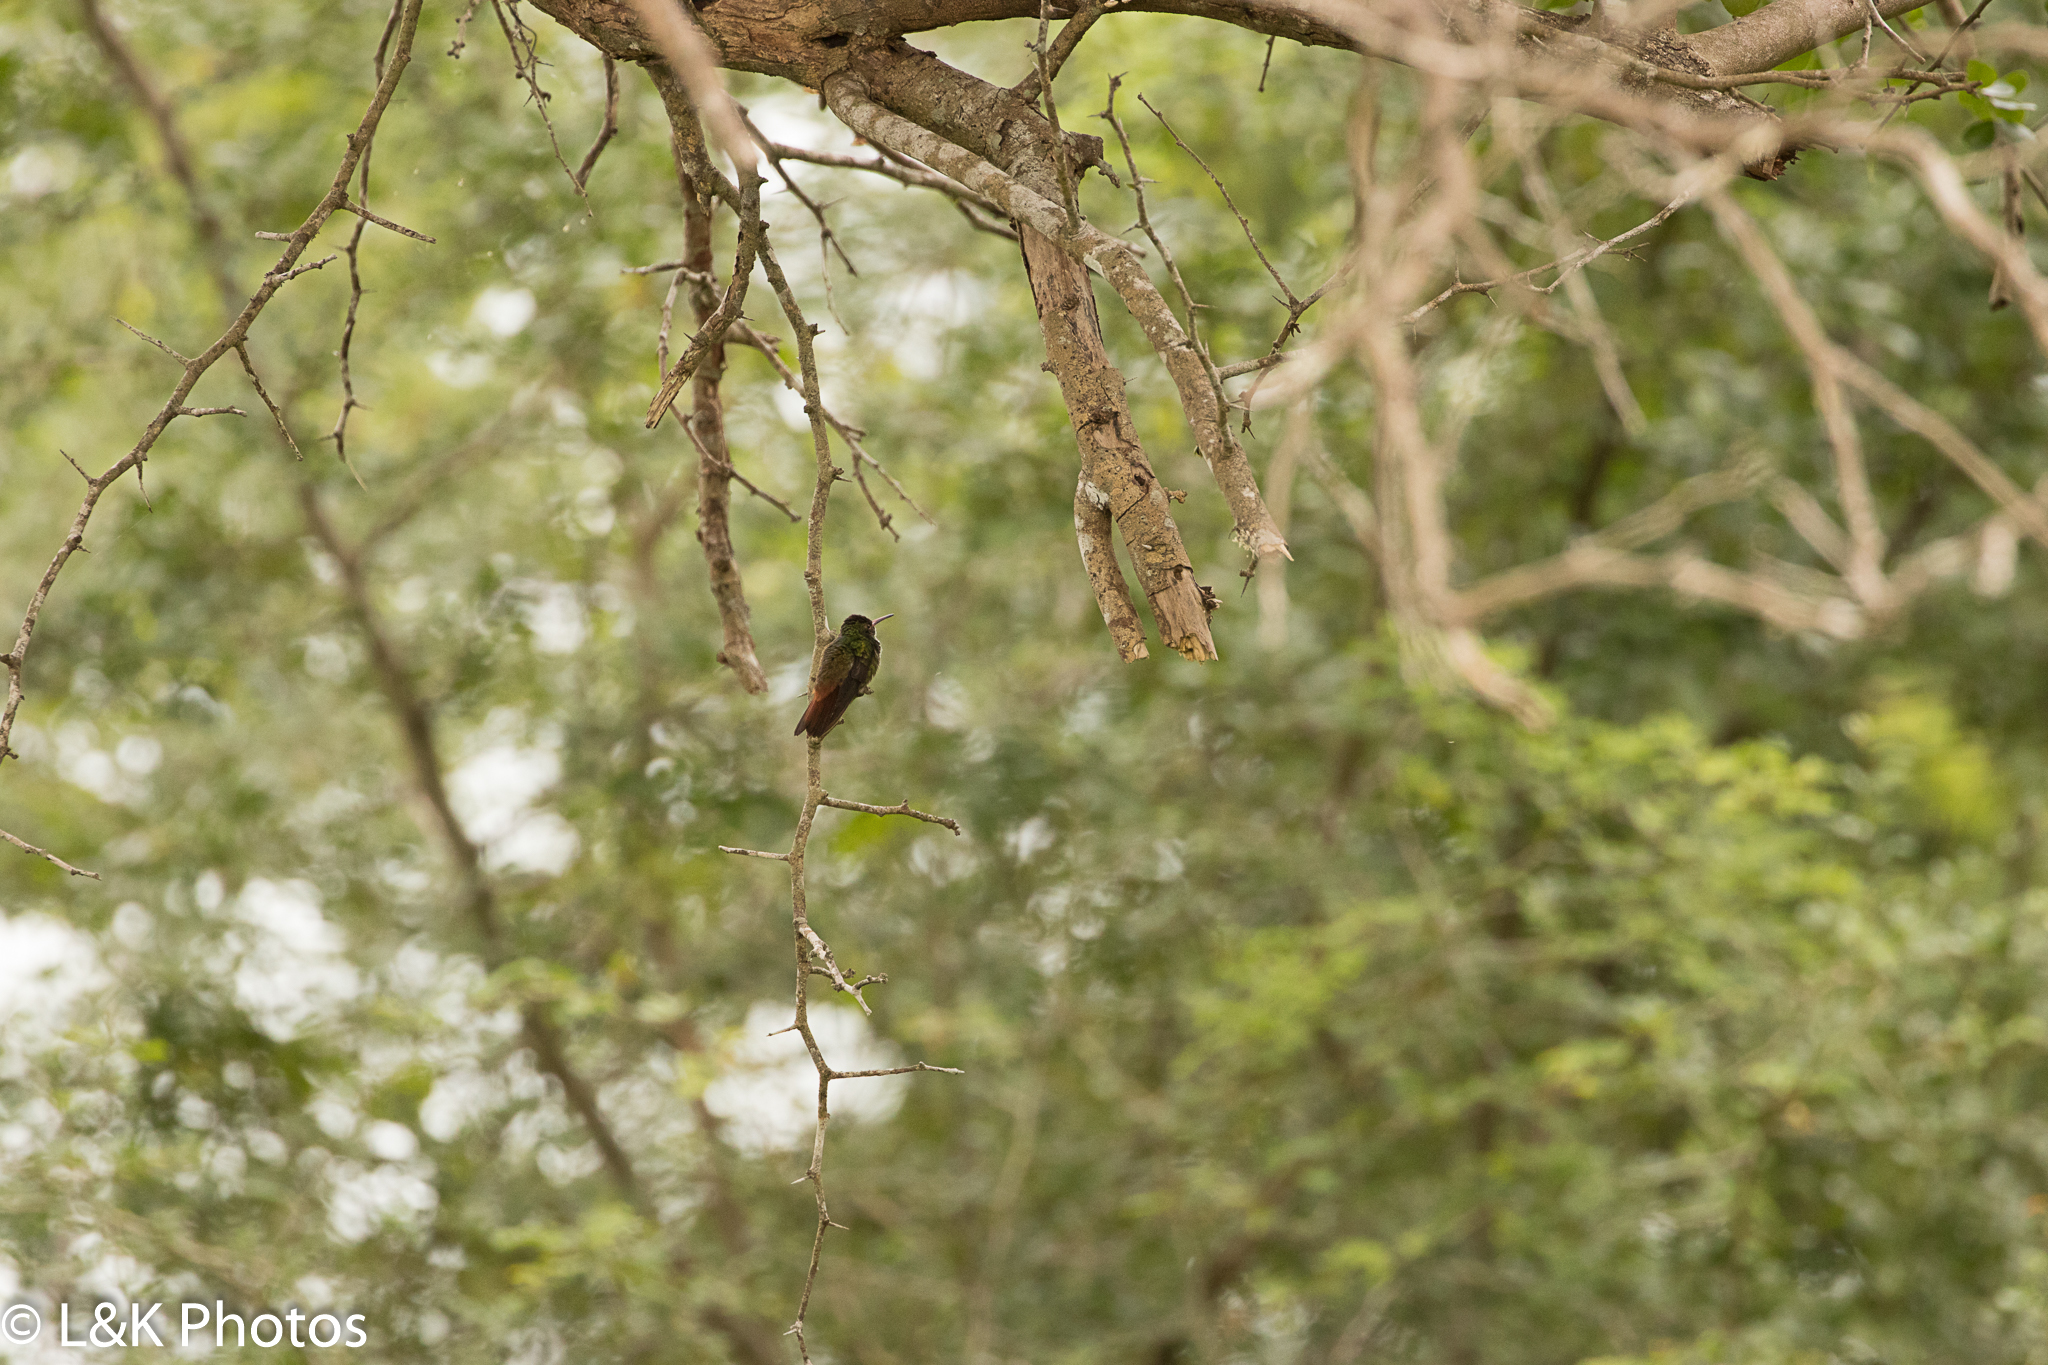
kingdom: Animalia
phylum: Chordata
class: Aves
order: Apodiformes
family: Trochilidae
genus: Amazilia
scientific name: Amazilia tzacatl
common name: Rufous-tailed hummingbird
